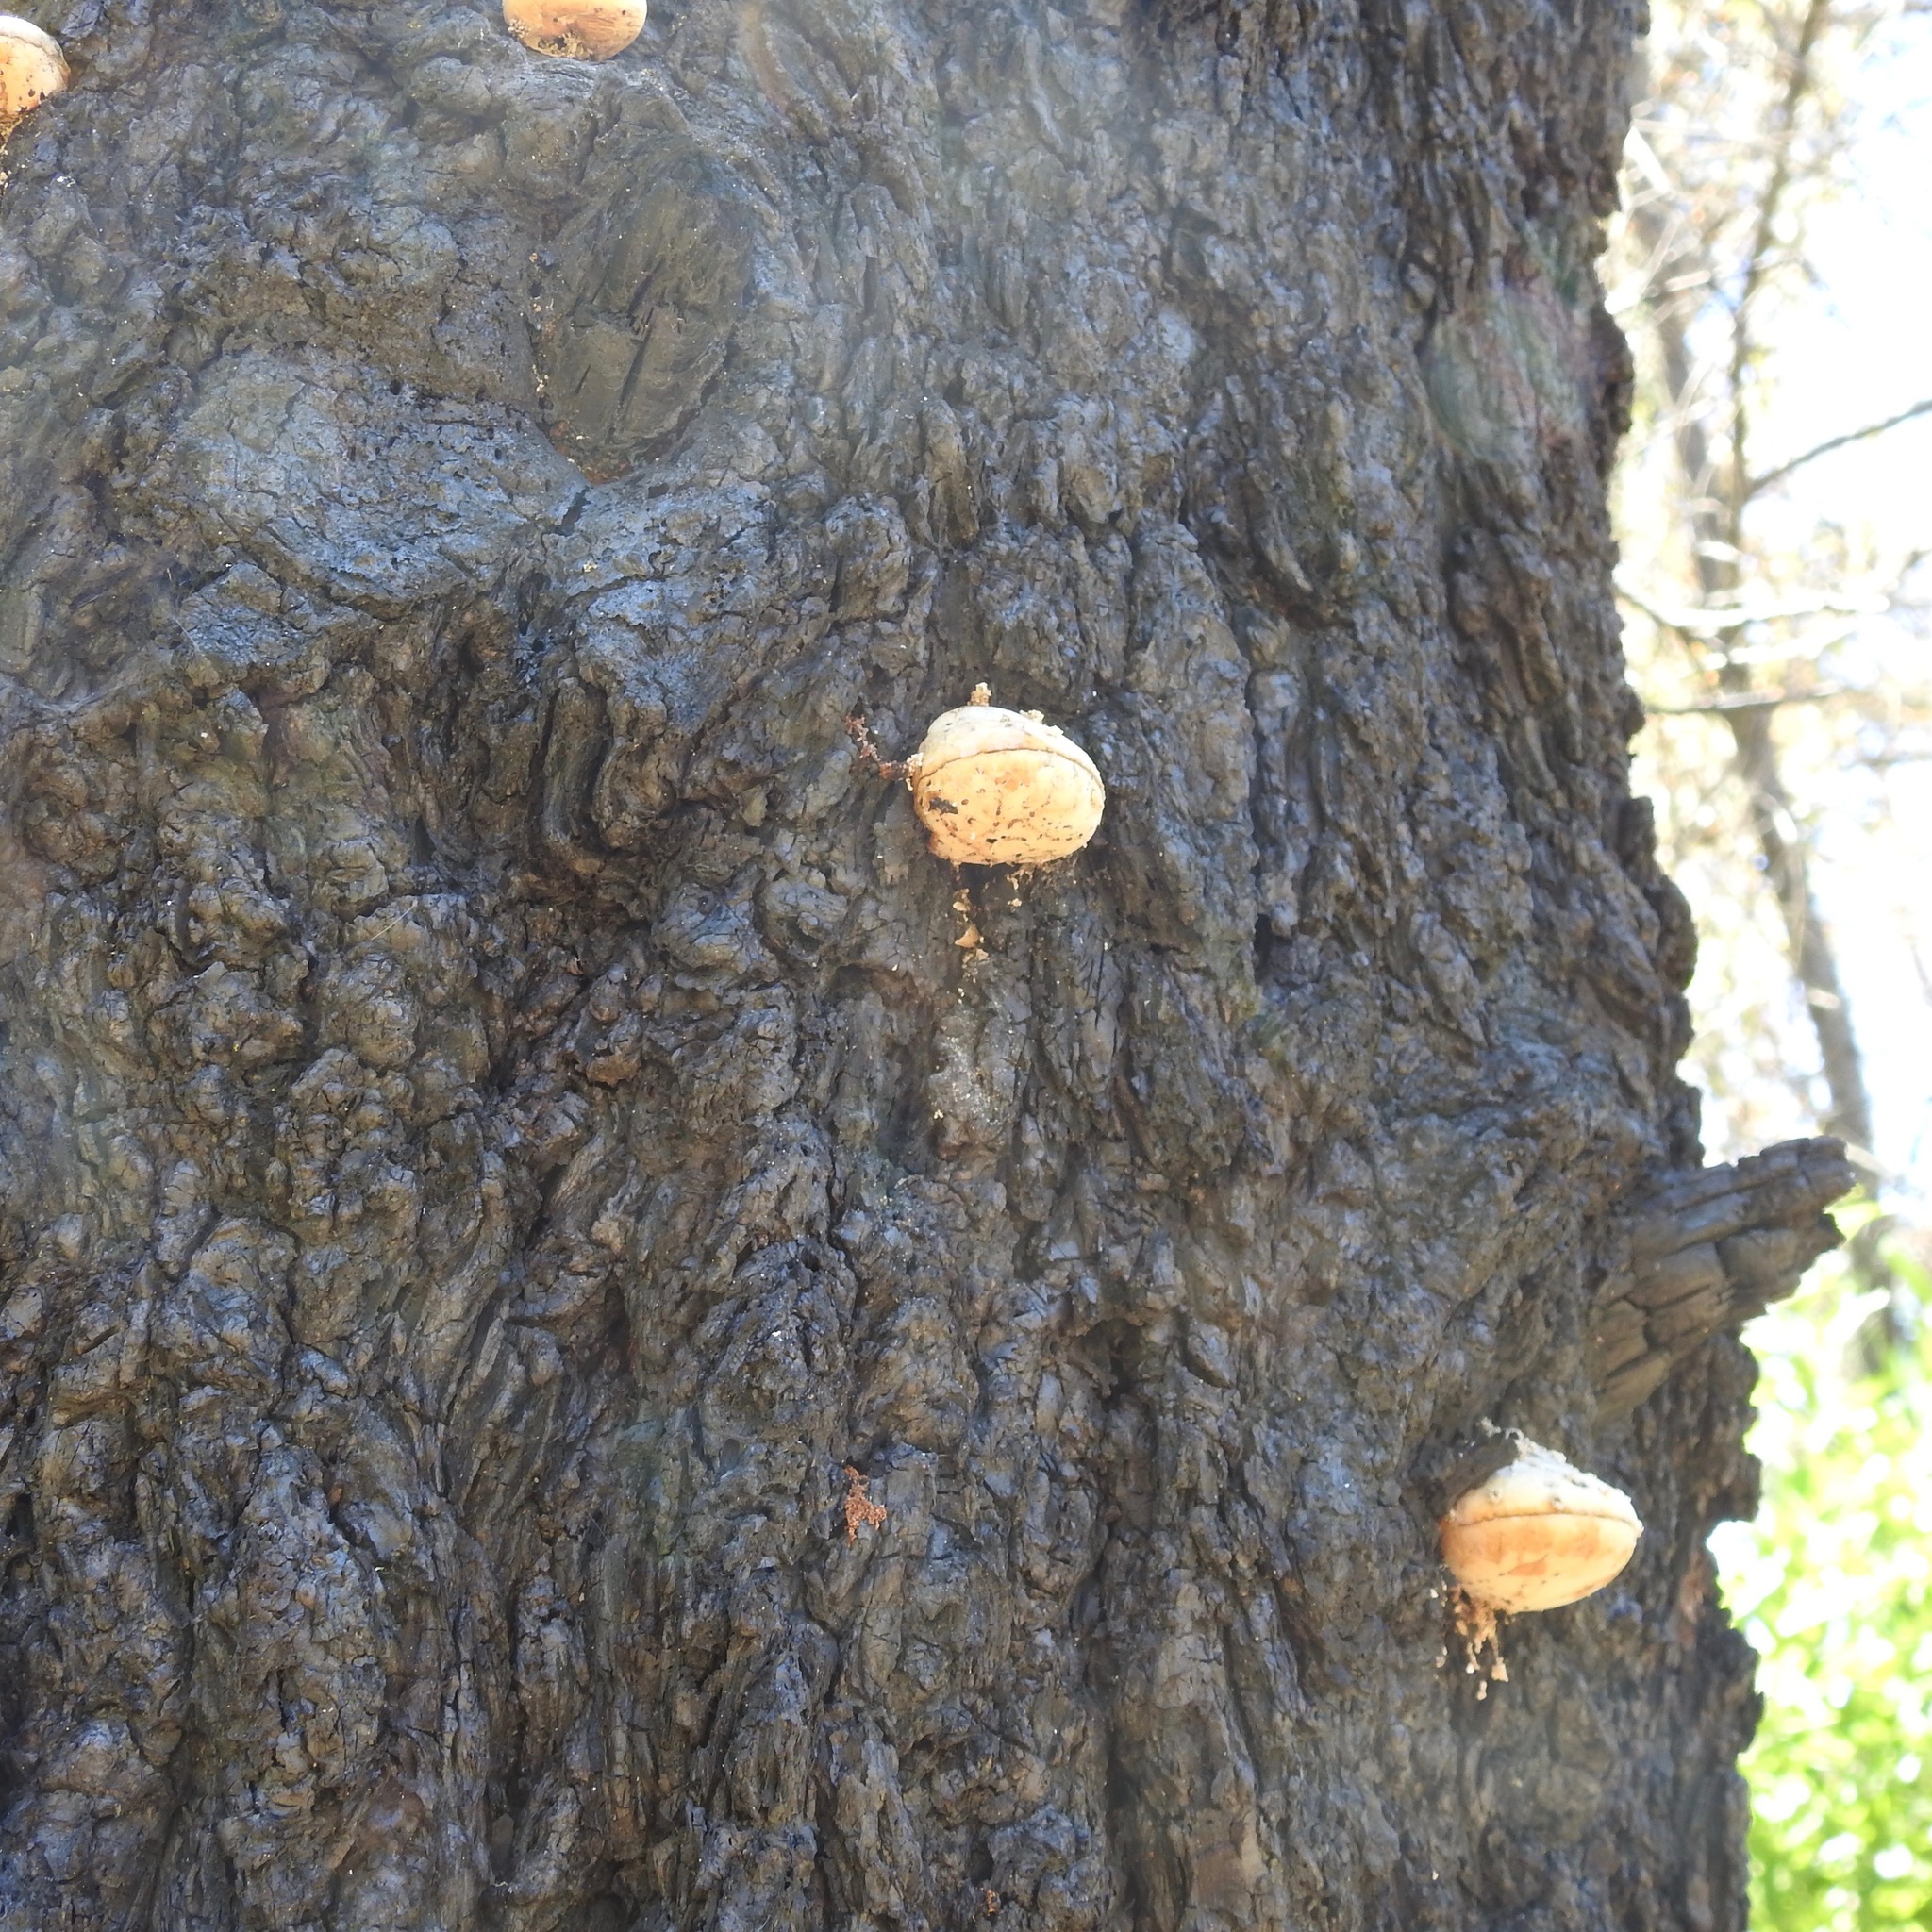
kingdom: Fungi
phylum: Basidiomycota
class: Agaricomycetes
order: Polyporales
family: Polyporaceae
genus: Cryptoporus
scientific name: Cryptoporus volvatus
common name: Veiled polypore
